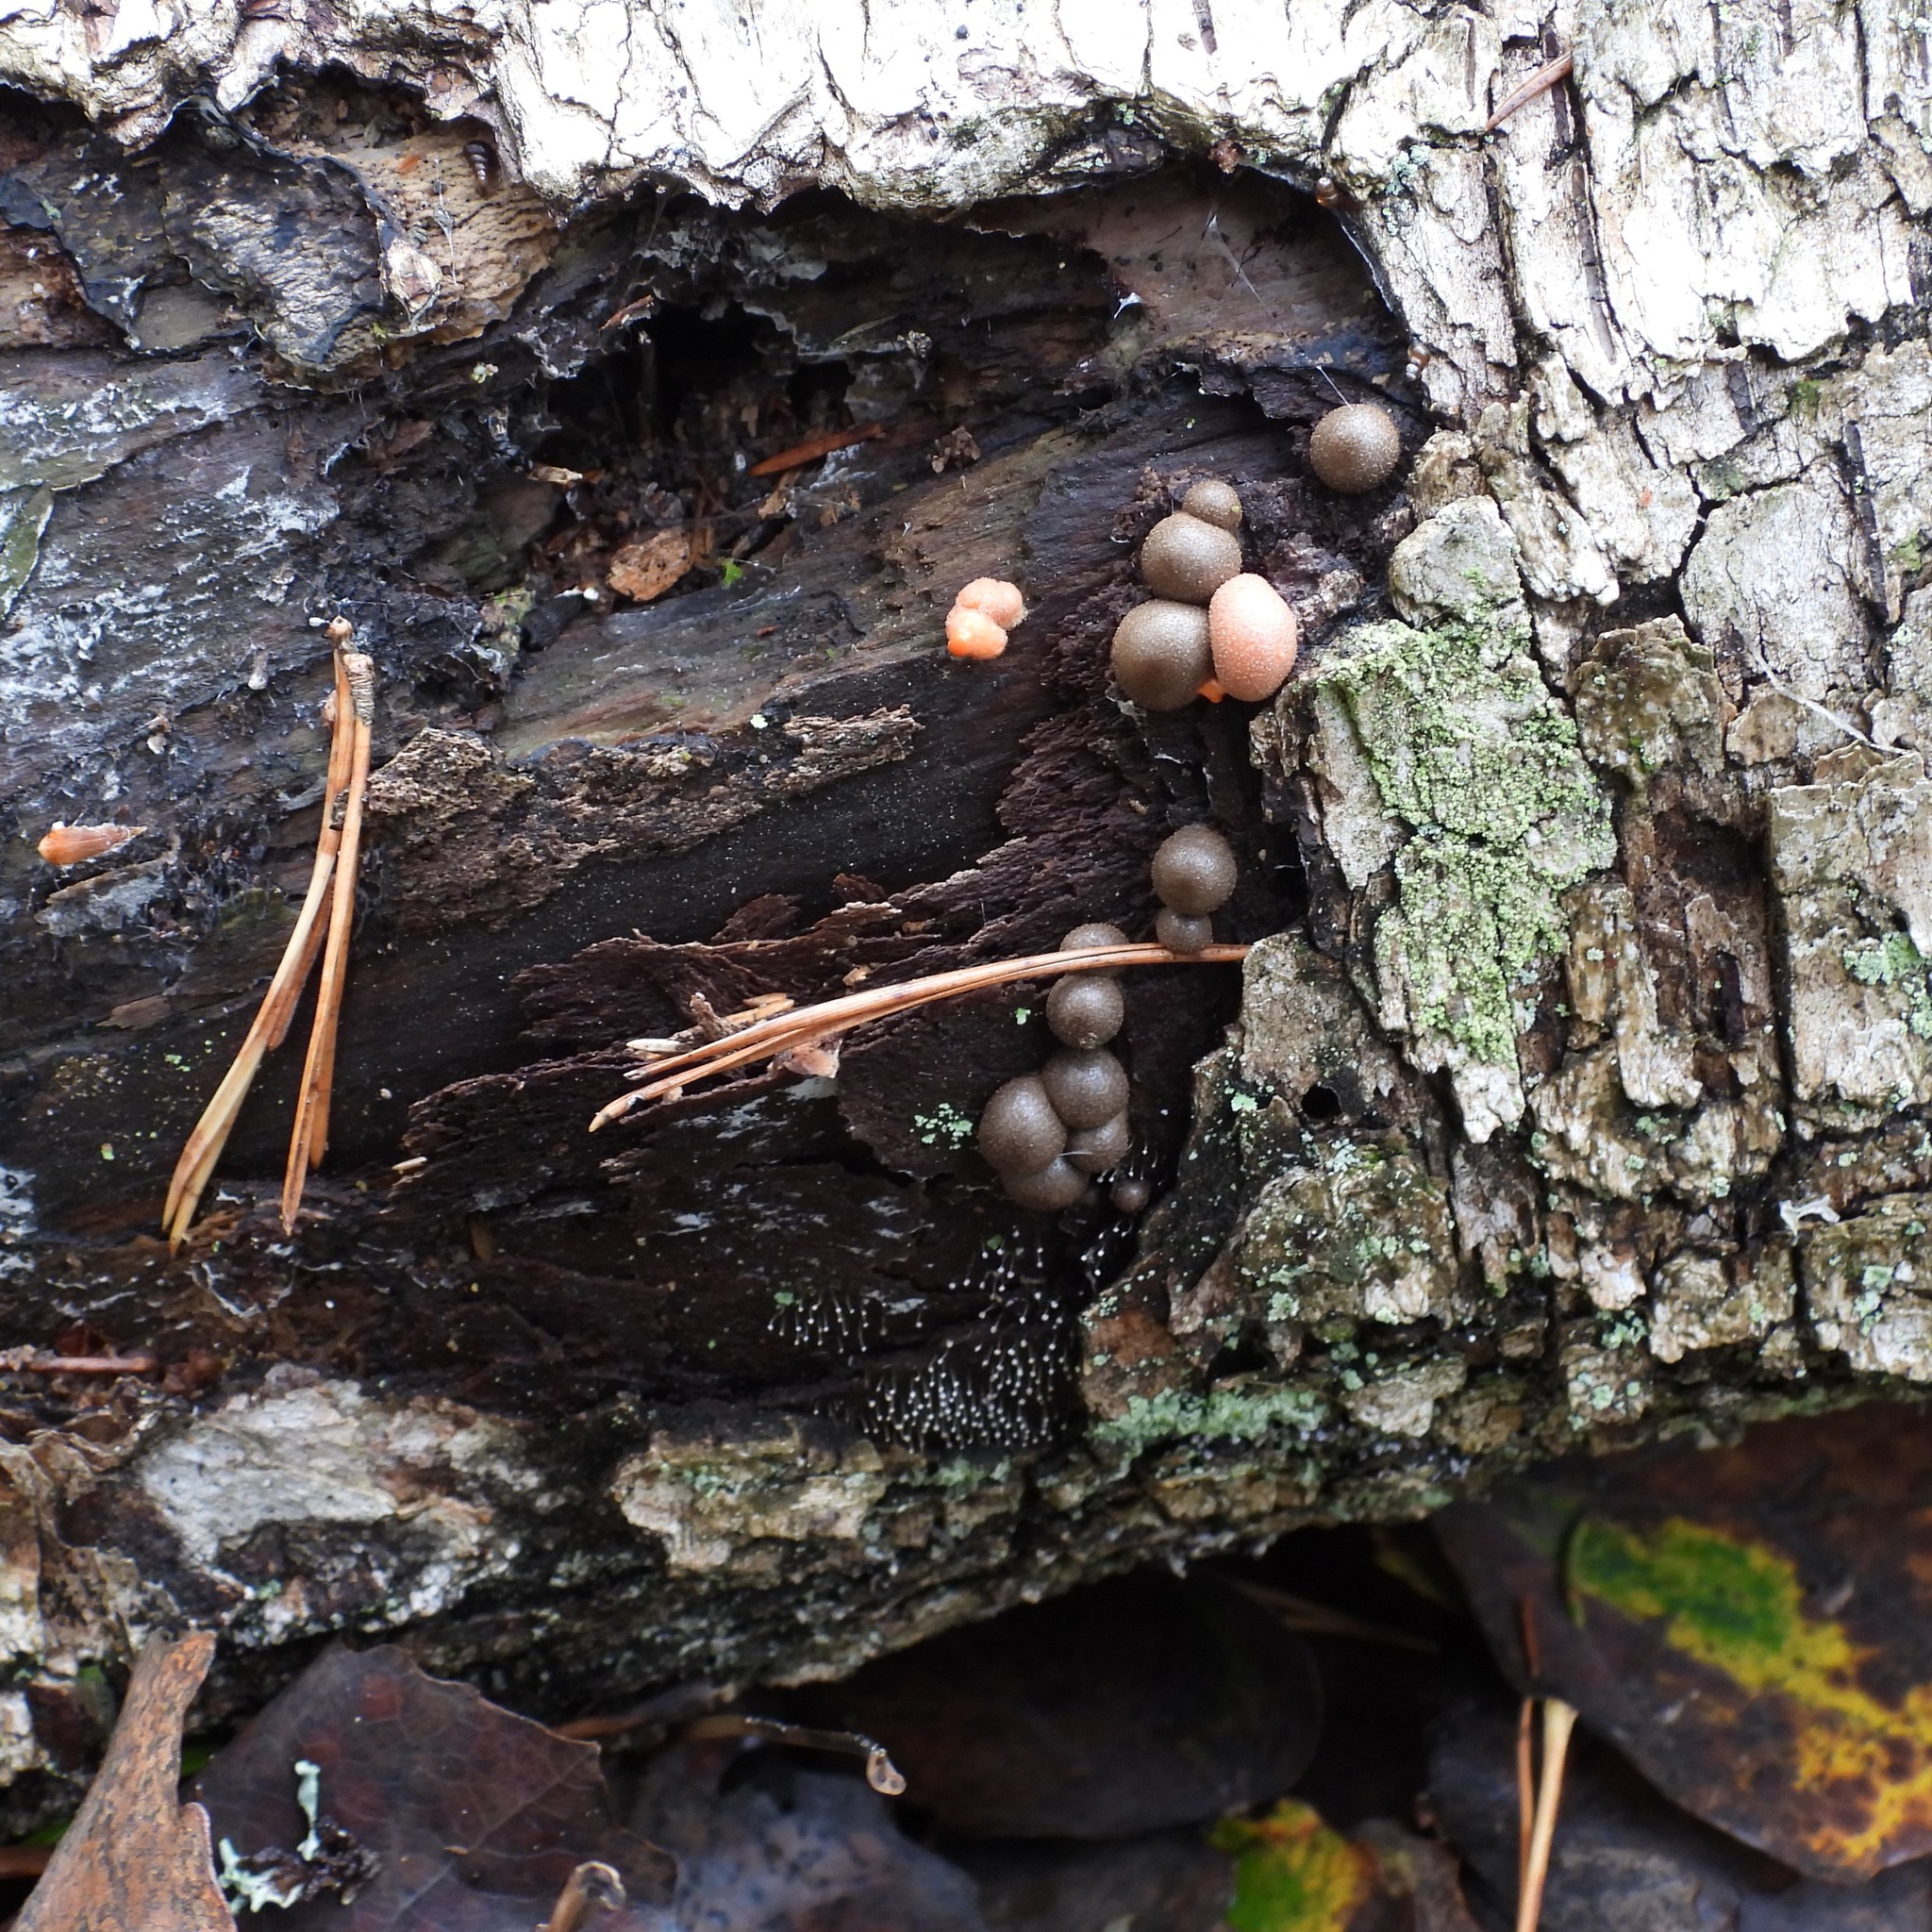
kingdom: Protozoa
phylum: Mycetozoa
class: Myxomycetes
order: Cribrariales
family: Tubiferaceae
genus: Lycogala
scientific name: Lycogala epidendrum
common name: Wolf's milk
